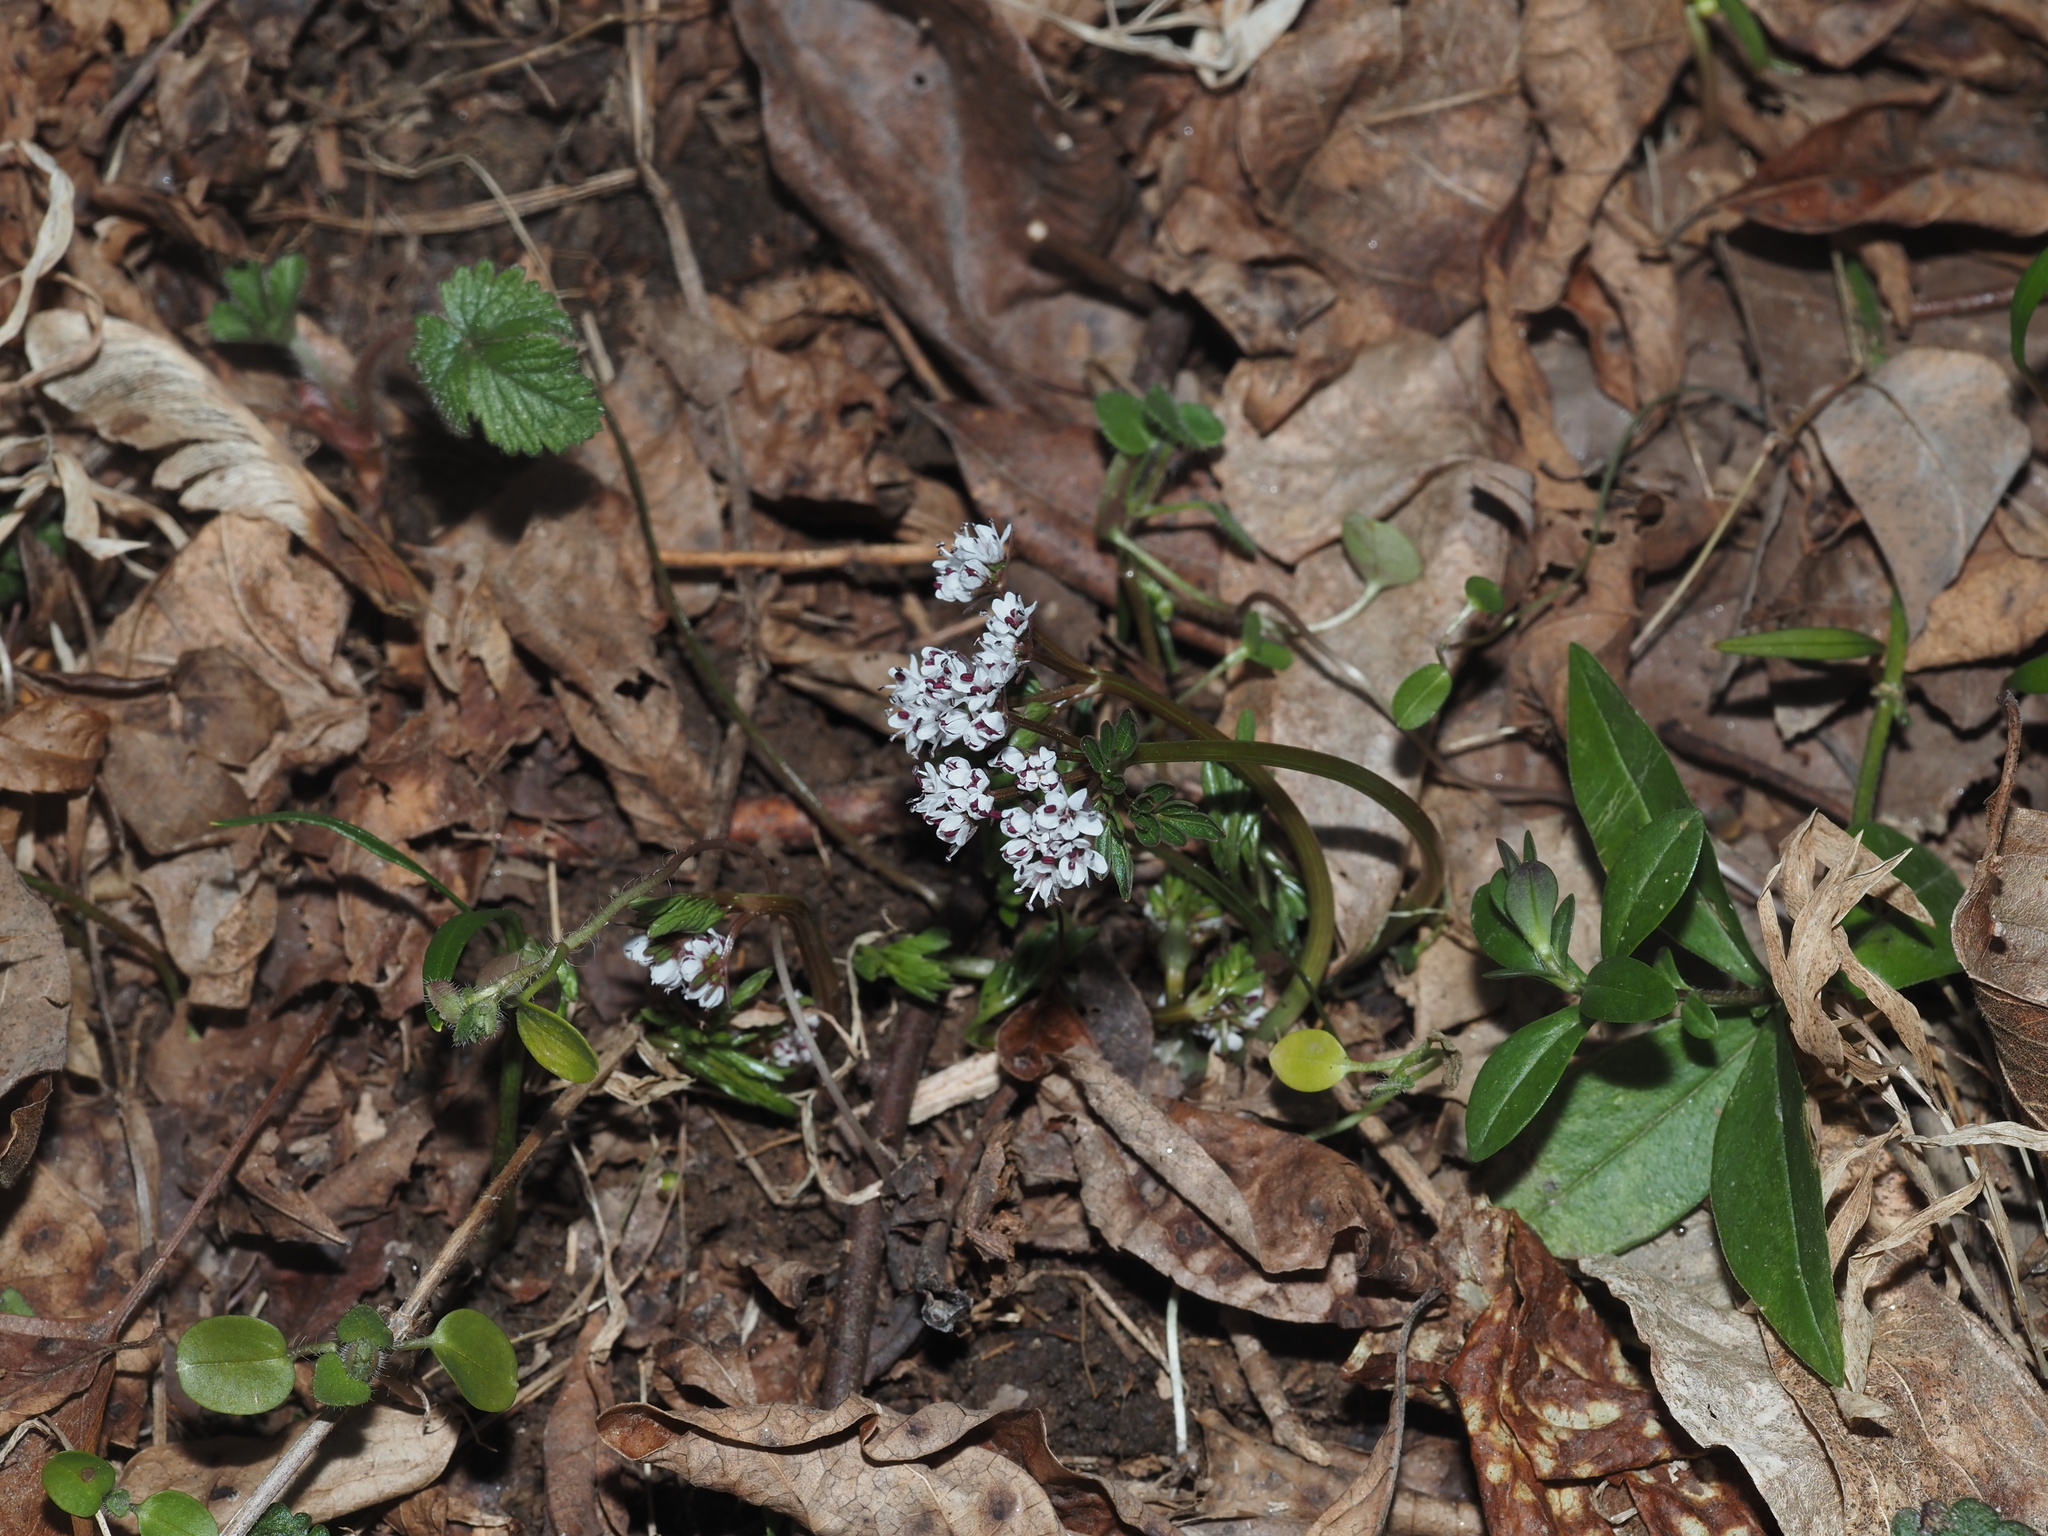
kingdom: Plantae
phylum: Tracheophyta
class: Magnoliopsida
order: Apiales
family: Apiaceae
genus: Erigenia
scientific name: Erigenia bulbosa
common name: Pepper-and-salt
